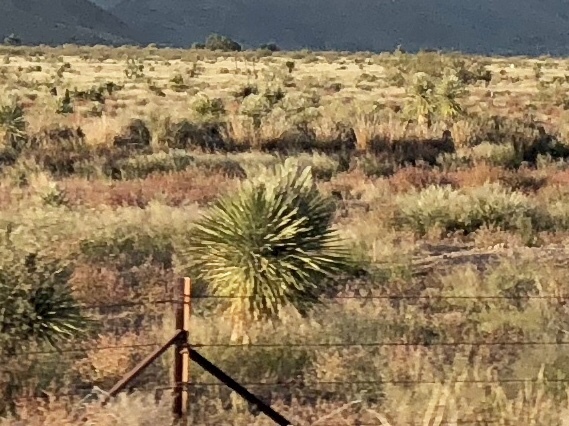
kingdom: Plantae
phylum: Tracheophyta
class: Liliopsida
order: Asparagales
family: Asparagaceae
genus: Yucca
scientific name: Yucca elata
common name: Palmella
